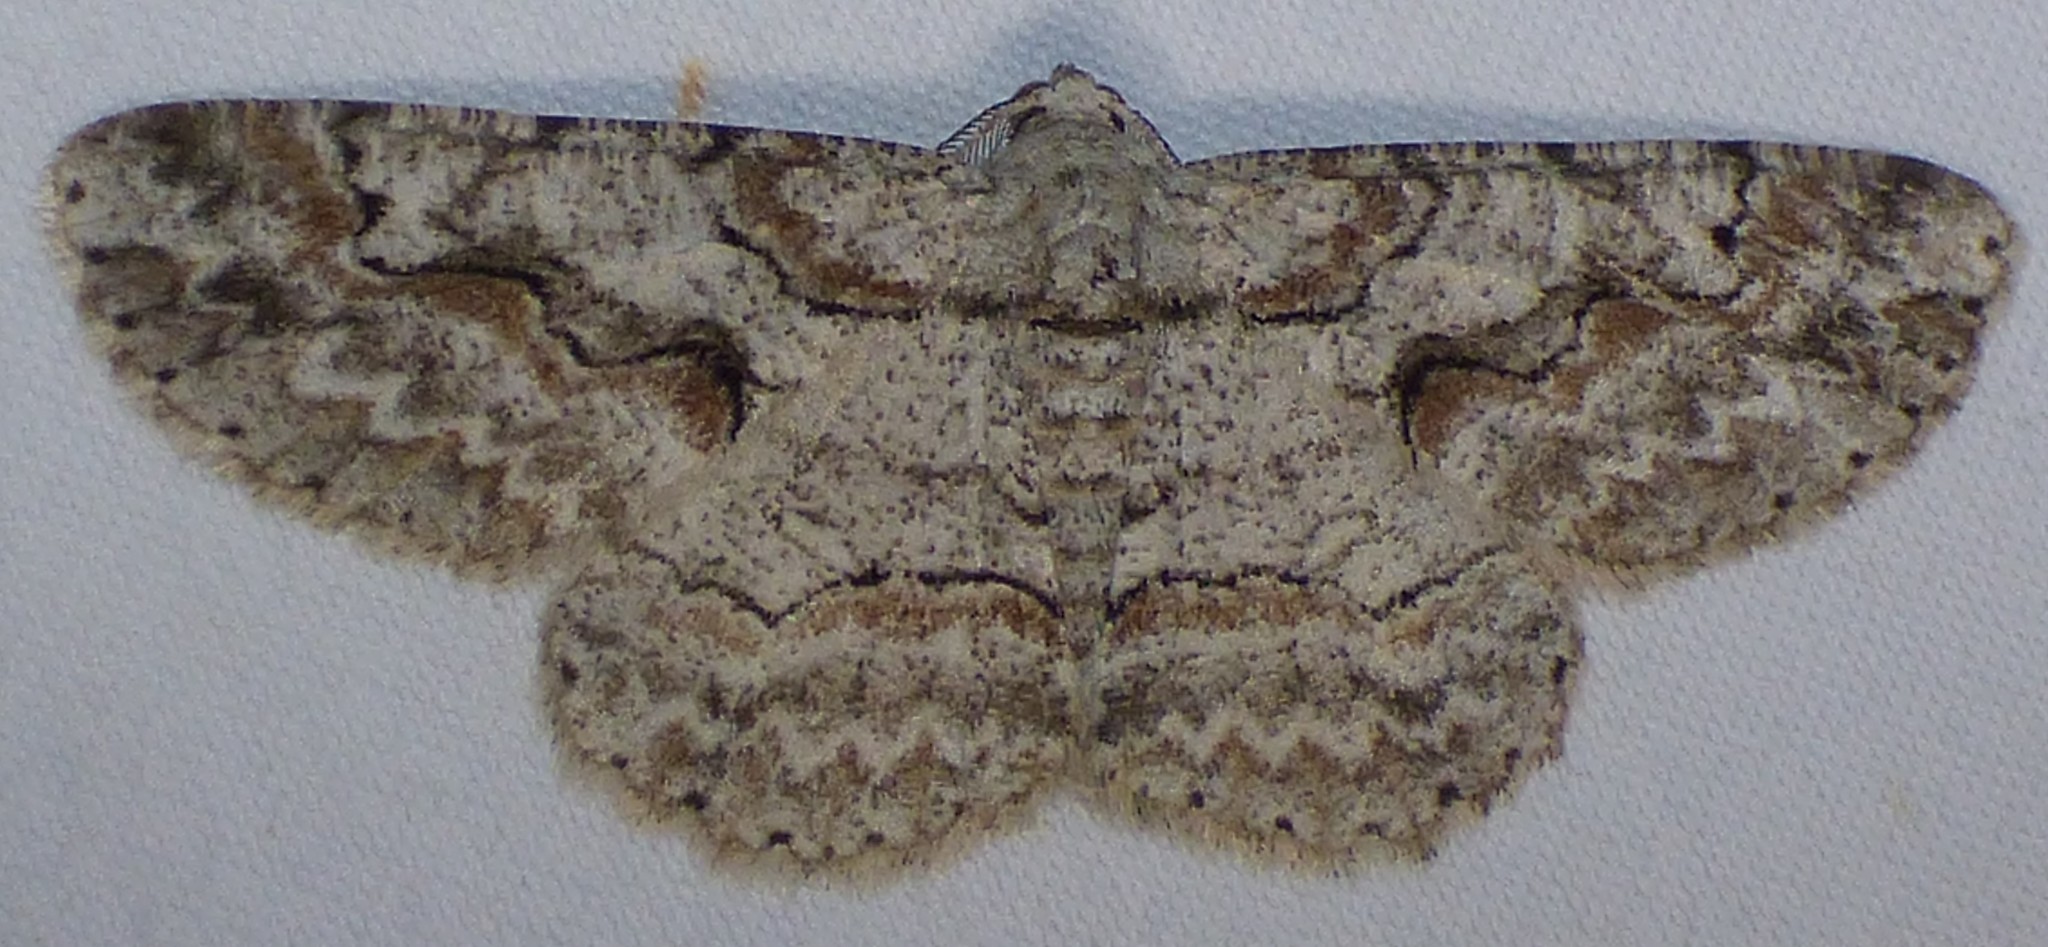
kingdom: Animalia
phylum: Arthropoda
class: Insecta
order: Lepidoptera
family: Geometridae
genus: Iridopsis
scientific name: Iridopsis defectaria
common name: Brown-shaded gray
